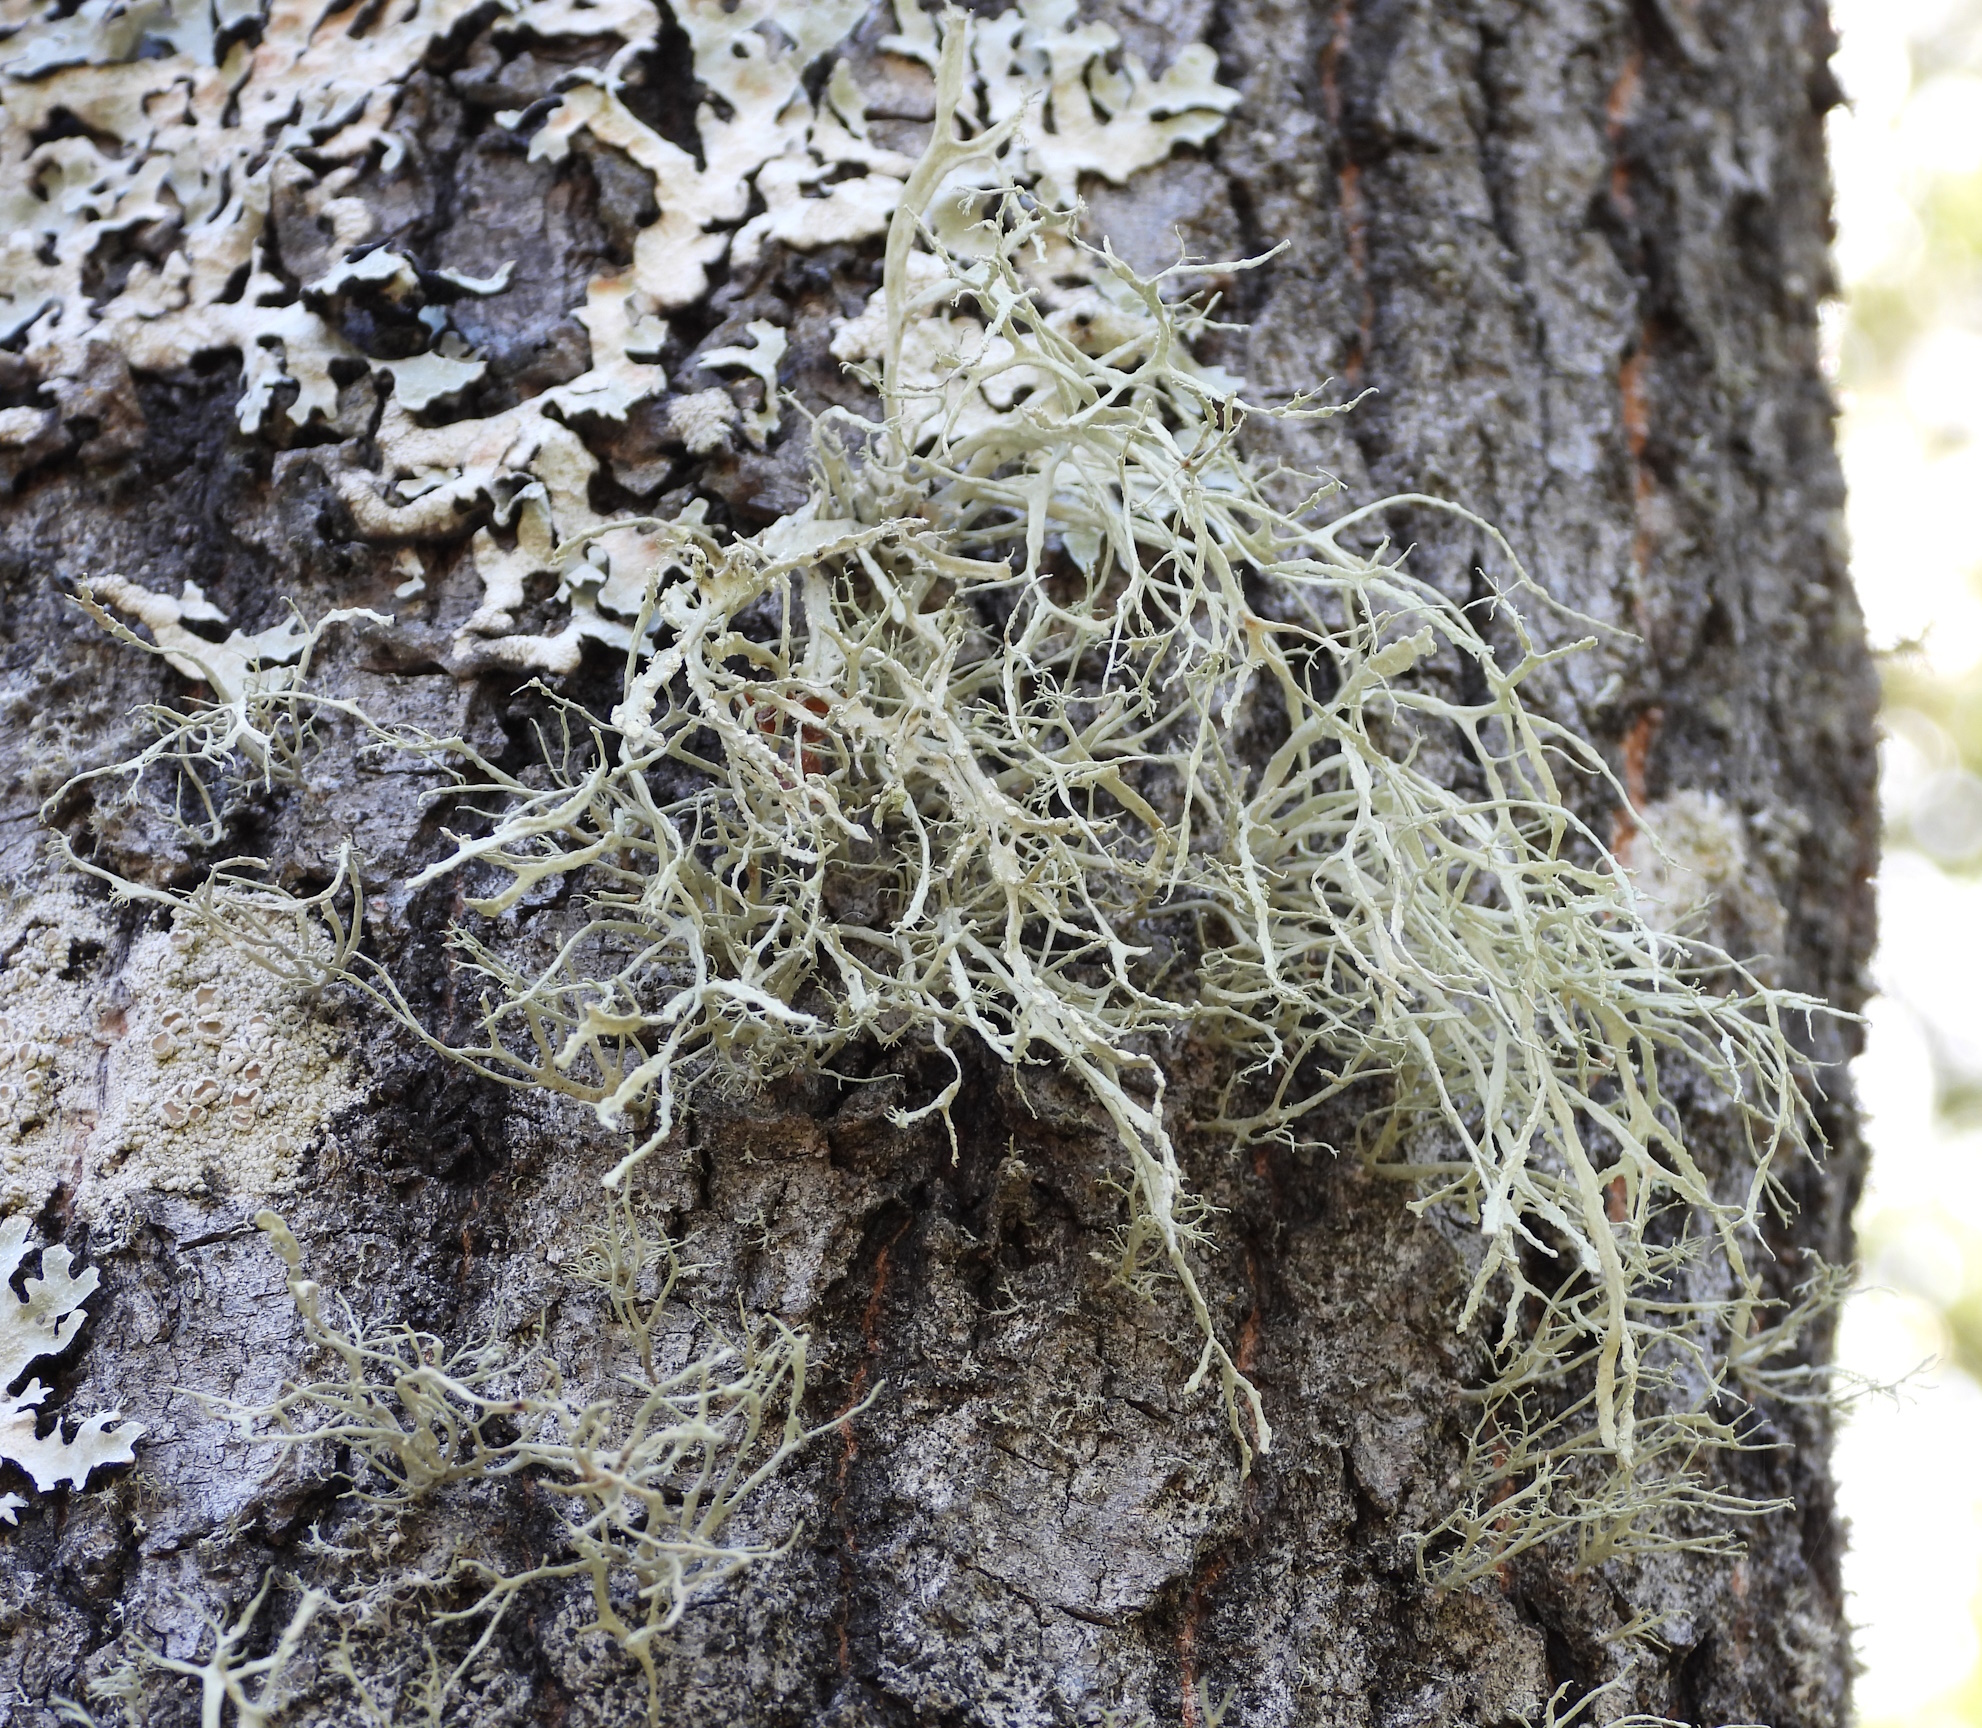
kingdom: Fungi
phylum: Ascomycota
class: Lecanoromycetes
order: Lecanorales
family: Ramalinaceae
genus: Ramalina
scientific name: Ramalina farinacea
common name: Farinose cartilage lichen
